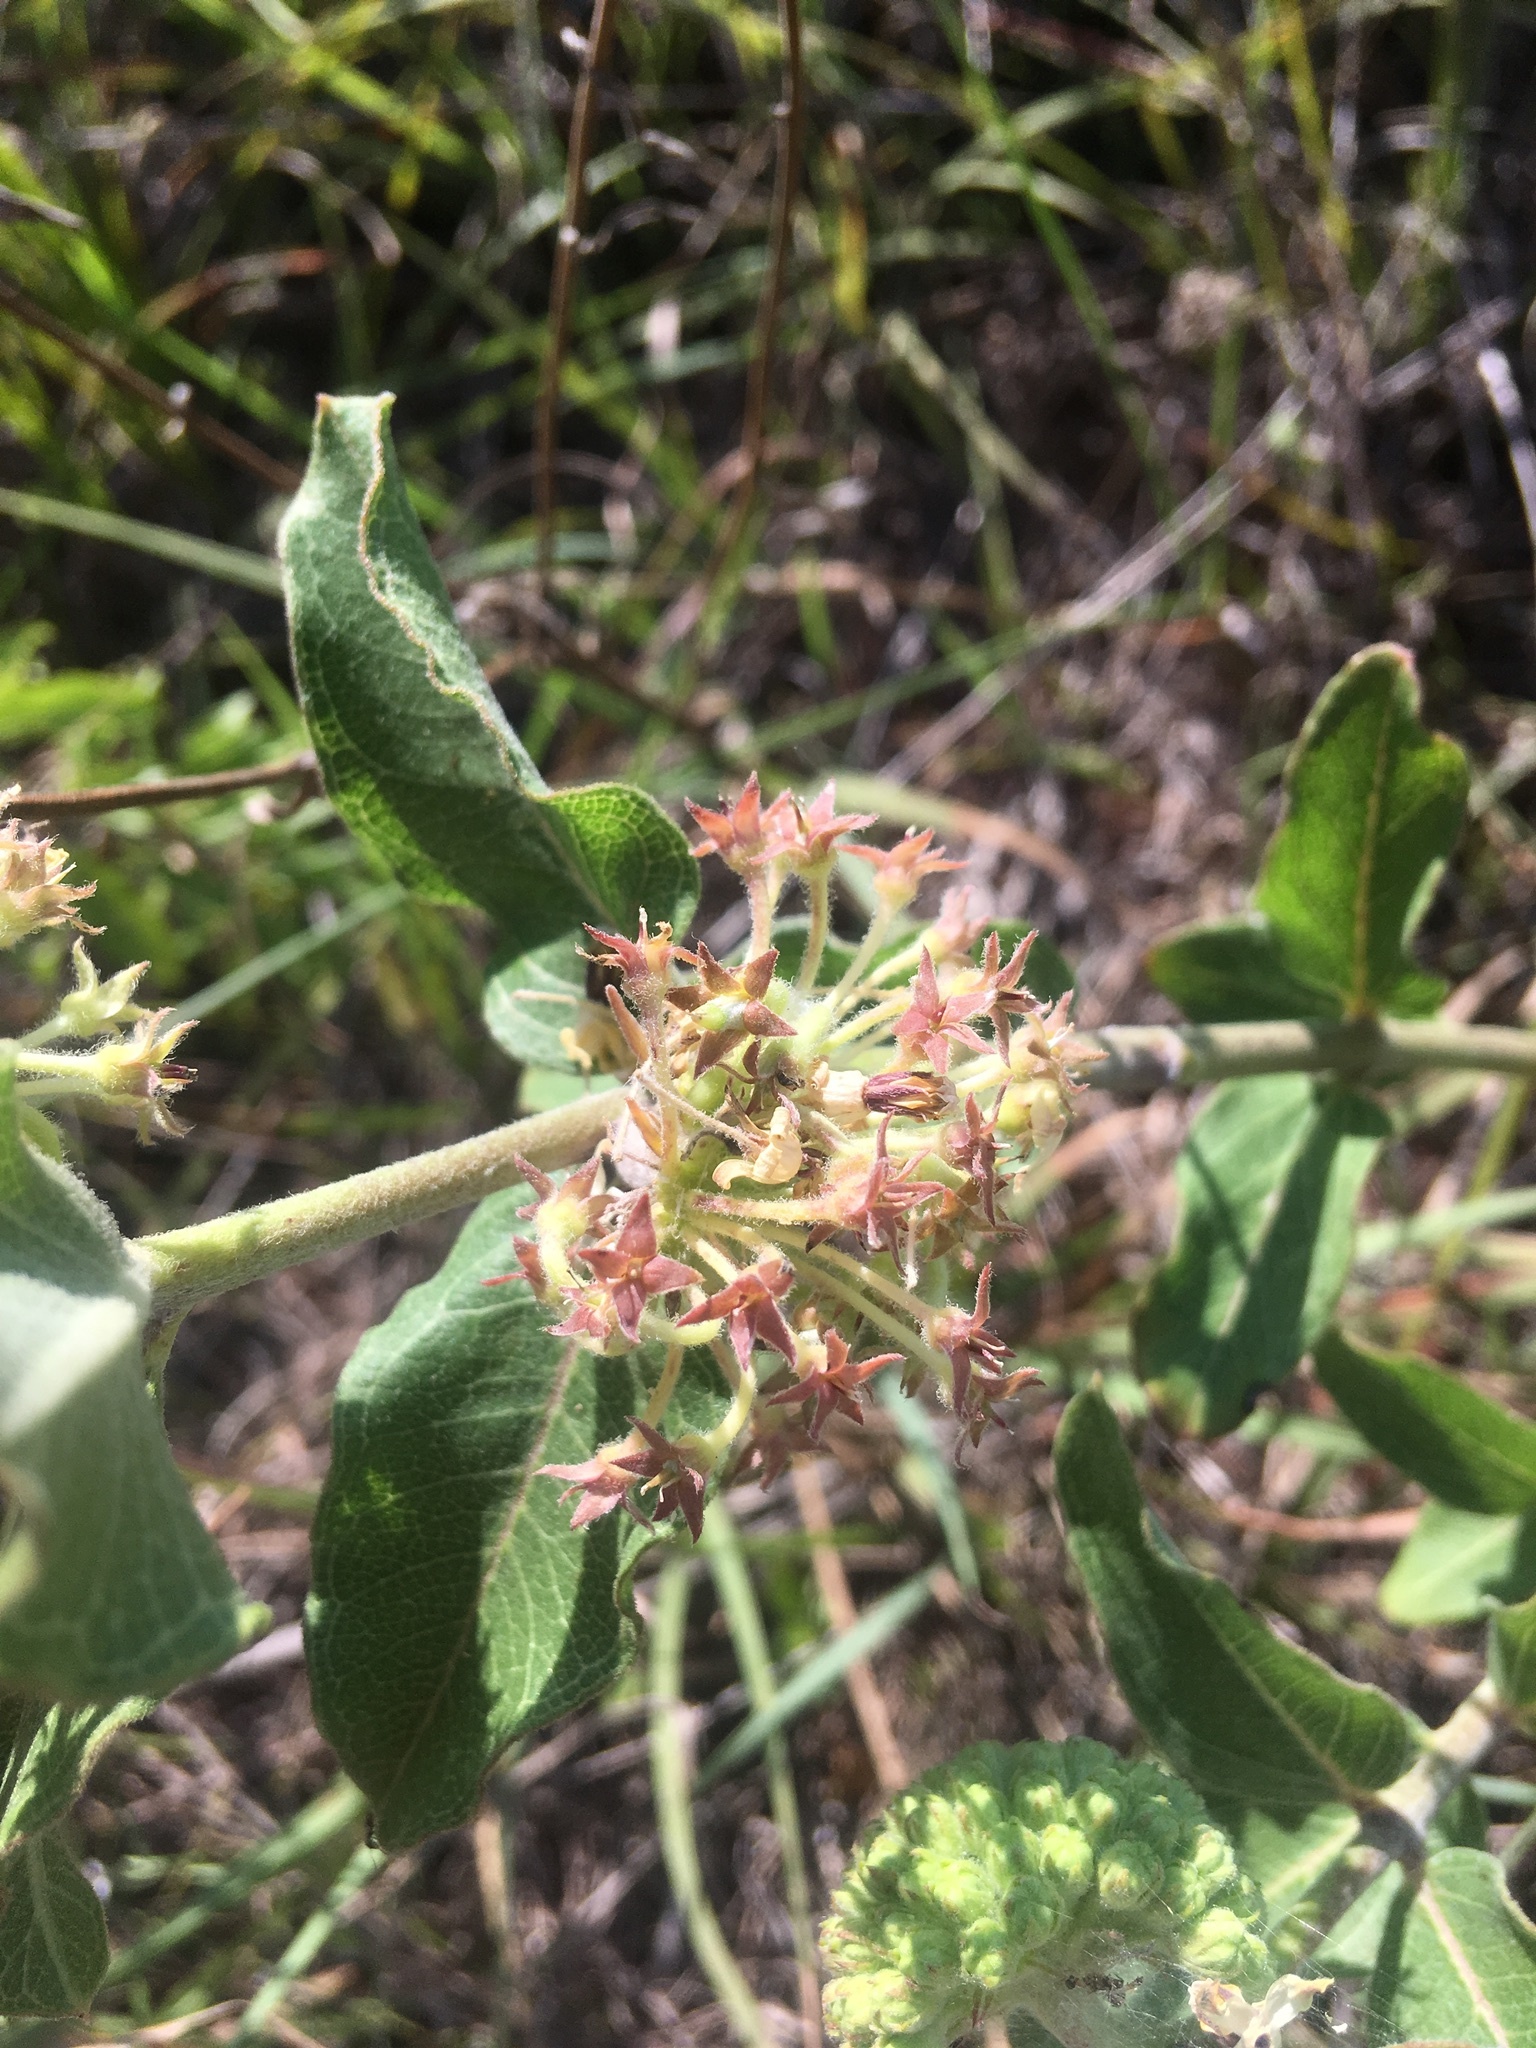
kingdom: Plantae
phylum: Tracheophyta
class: Magnoliopsida
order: Gentianales
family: Apocynaceae
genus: Asclepias
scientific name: Asclepias viridiflora
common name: Green comet milkweed
